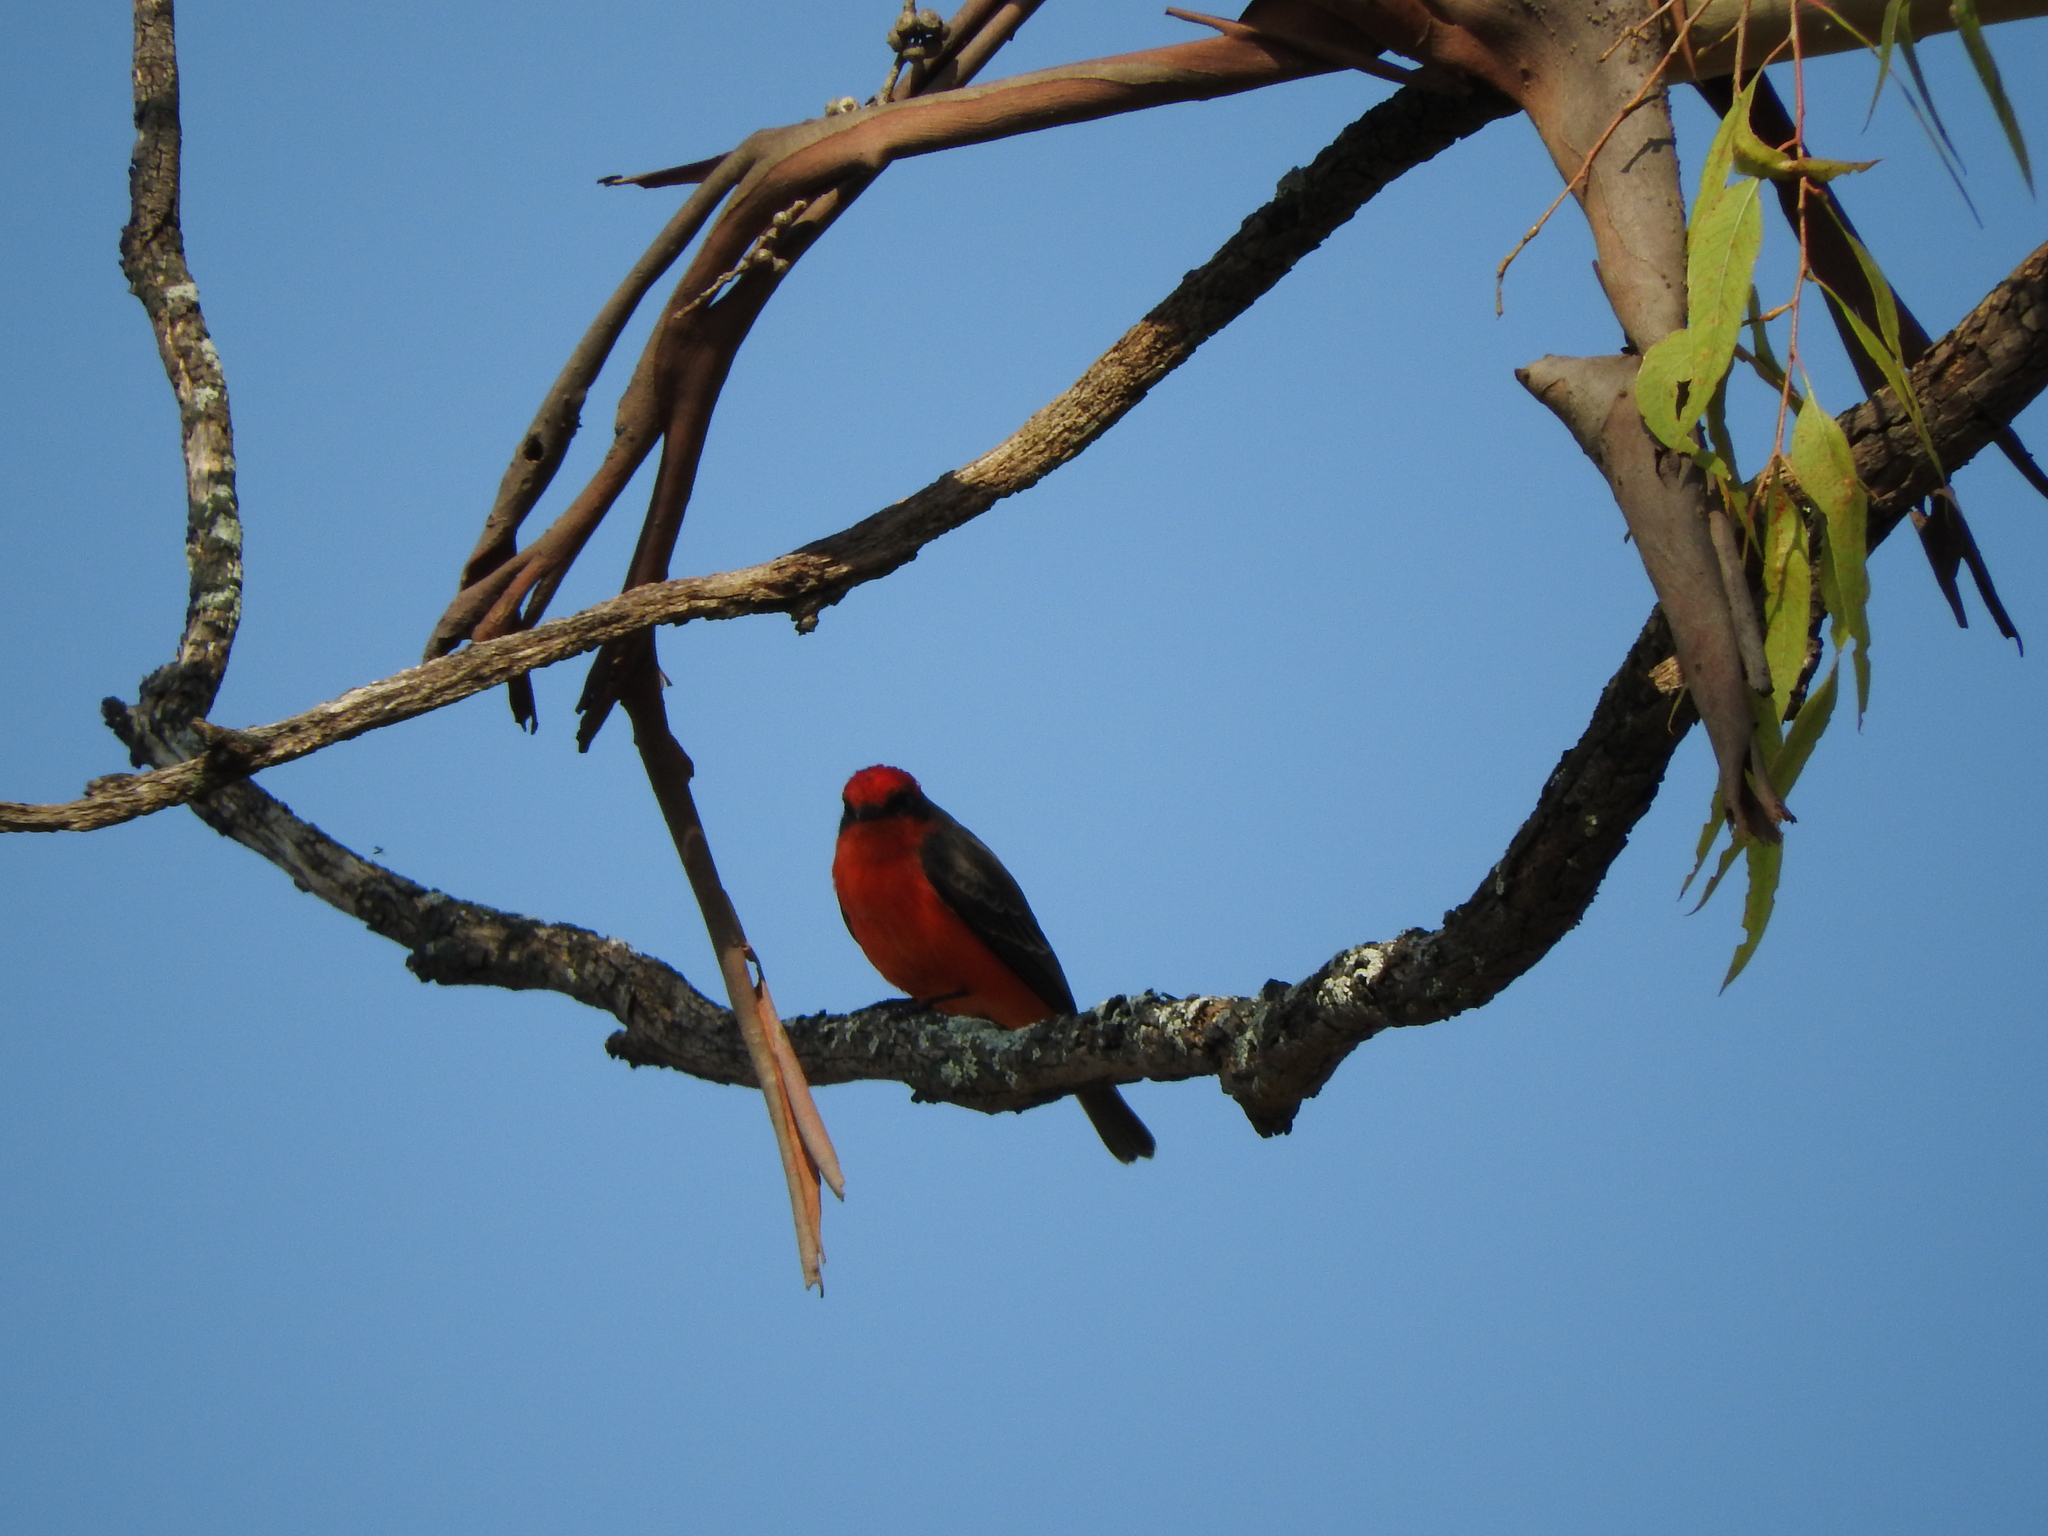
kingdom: Animalia
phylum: Chordata
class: Aves
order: Passeriformes
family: Tyrannidae
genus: Pyrocephalus
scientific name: Pyrocephalus rubinus
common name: Vermilion flycatcher
